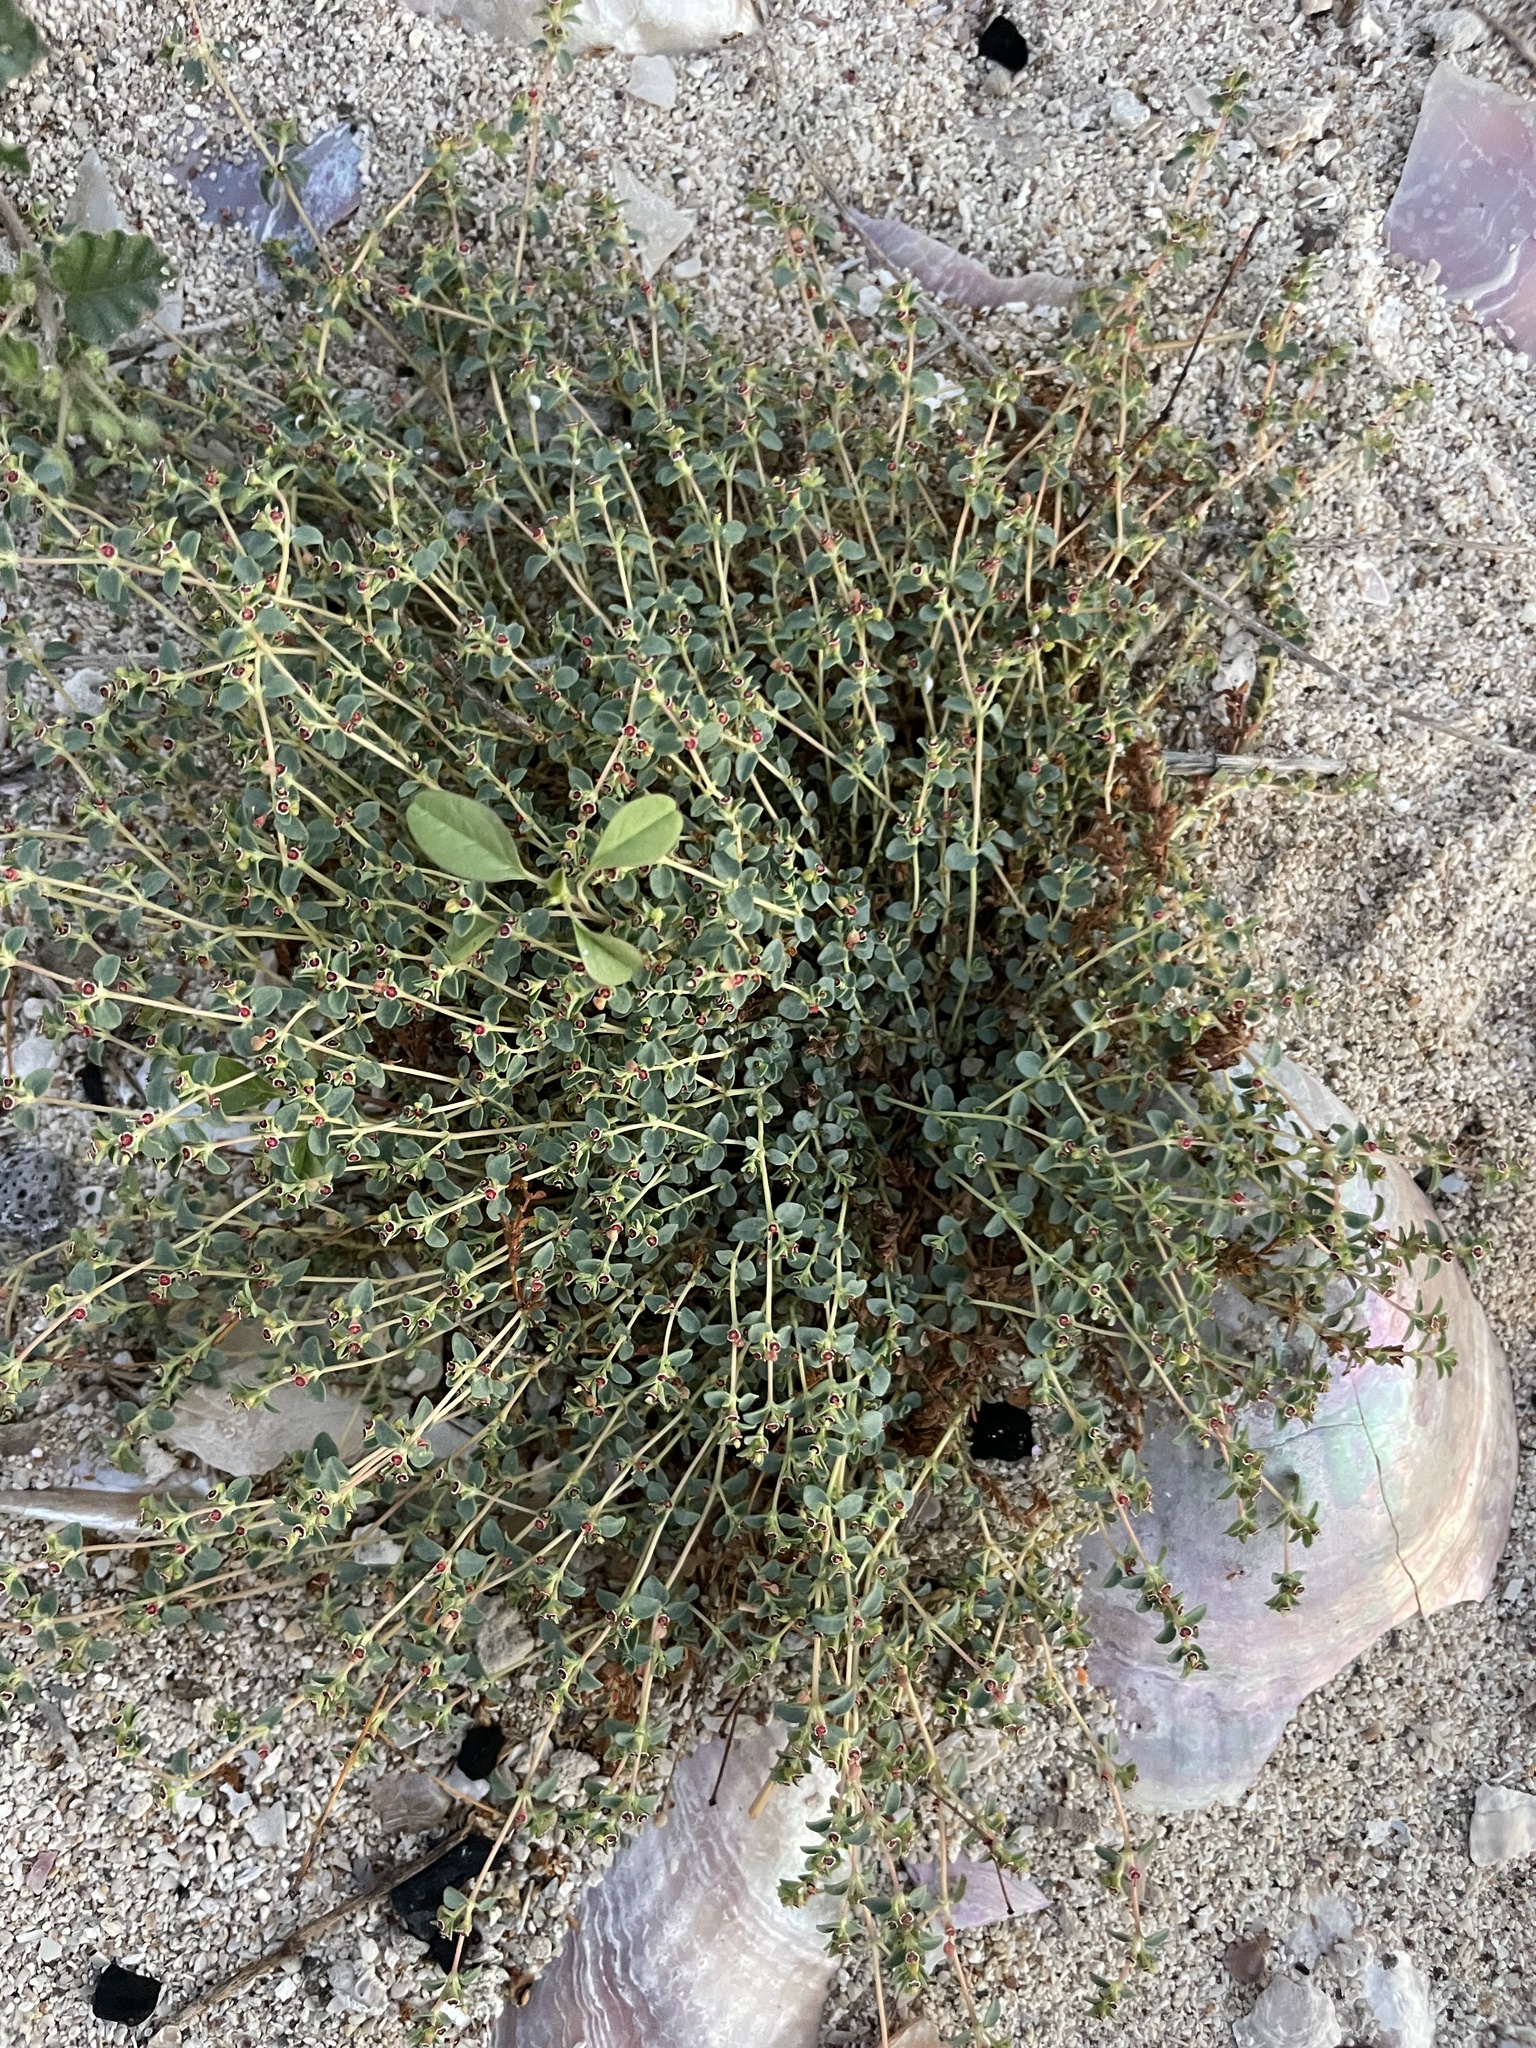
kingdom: Plantae
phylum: Tracheophyta
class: Magnoliopsida
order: Malpighiales
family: Euphorbiaceae
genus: Euphorbia
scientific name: Euphorbia polycarpa
